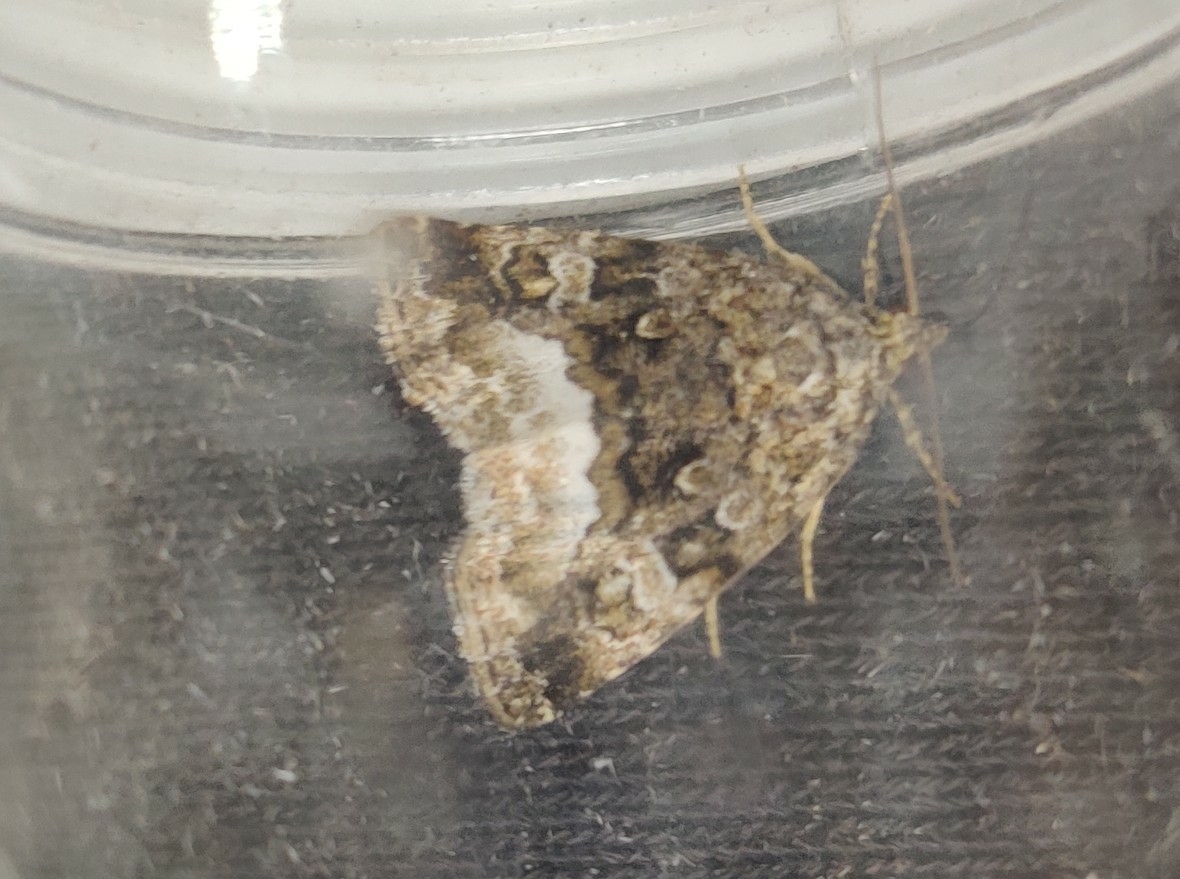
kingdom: Animalia
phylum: Arthropoda
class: Insecta
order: Lepidoptera
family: Noctuidae
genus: Deltote
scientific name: Deltote pygarga
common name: Marbled white spot
